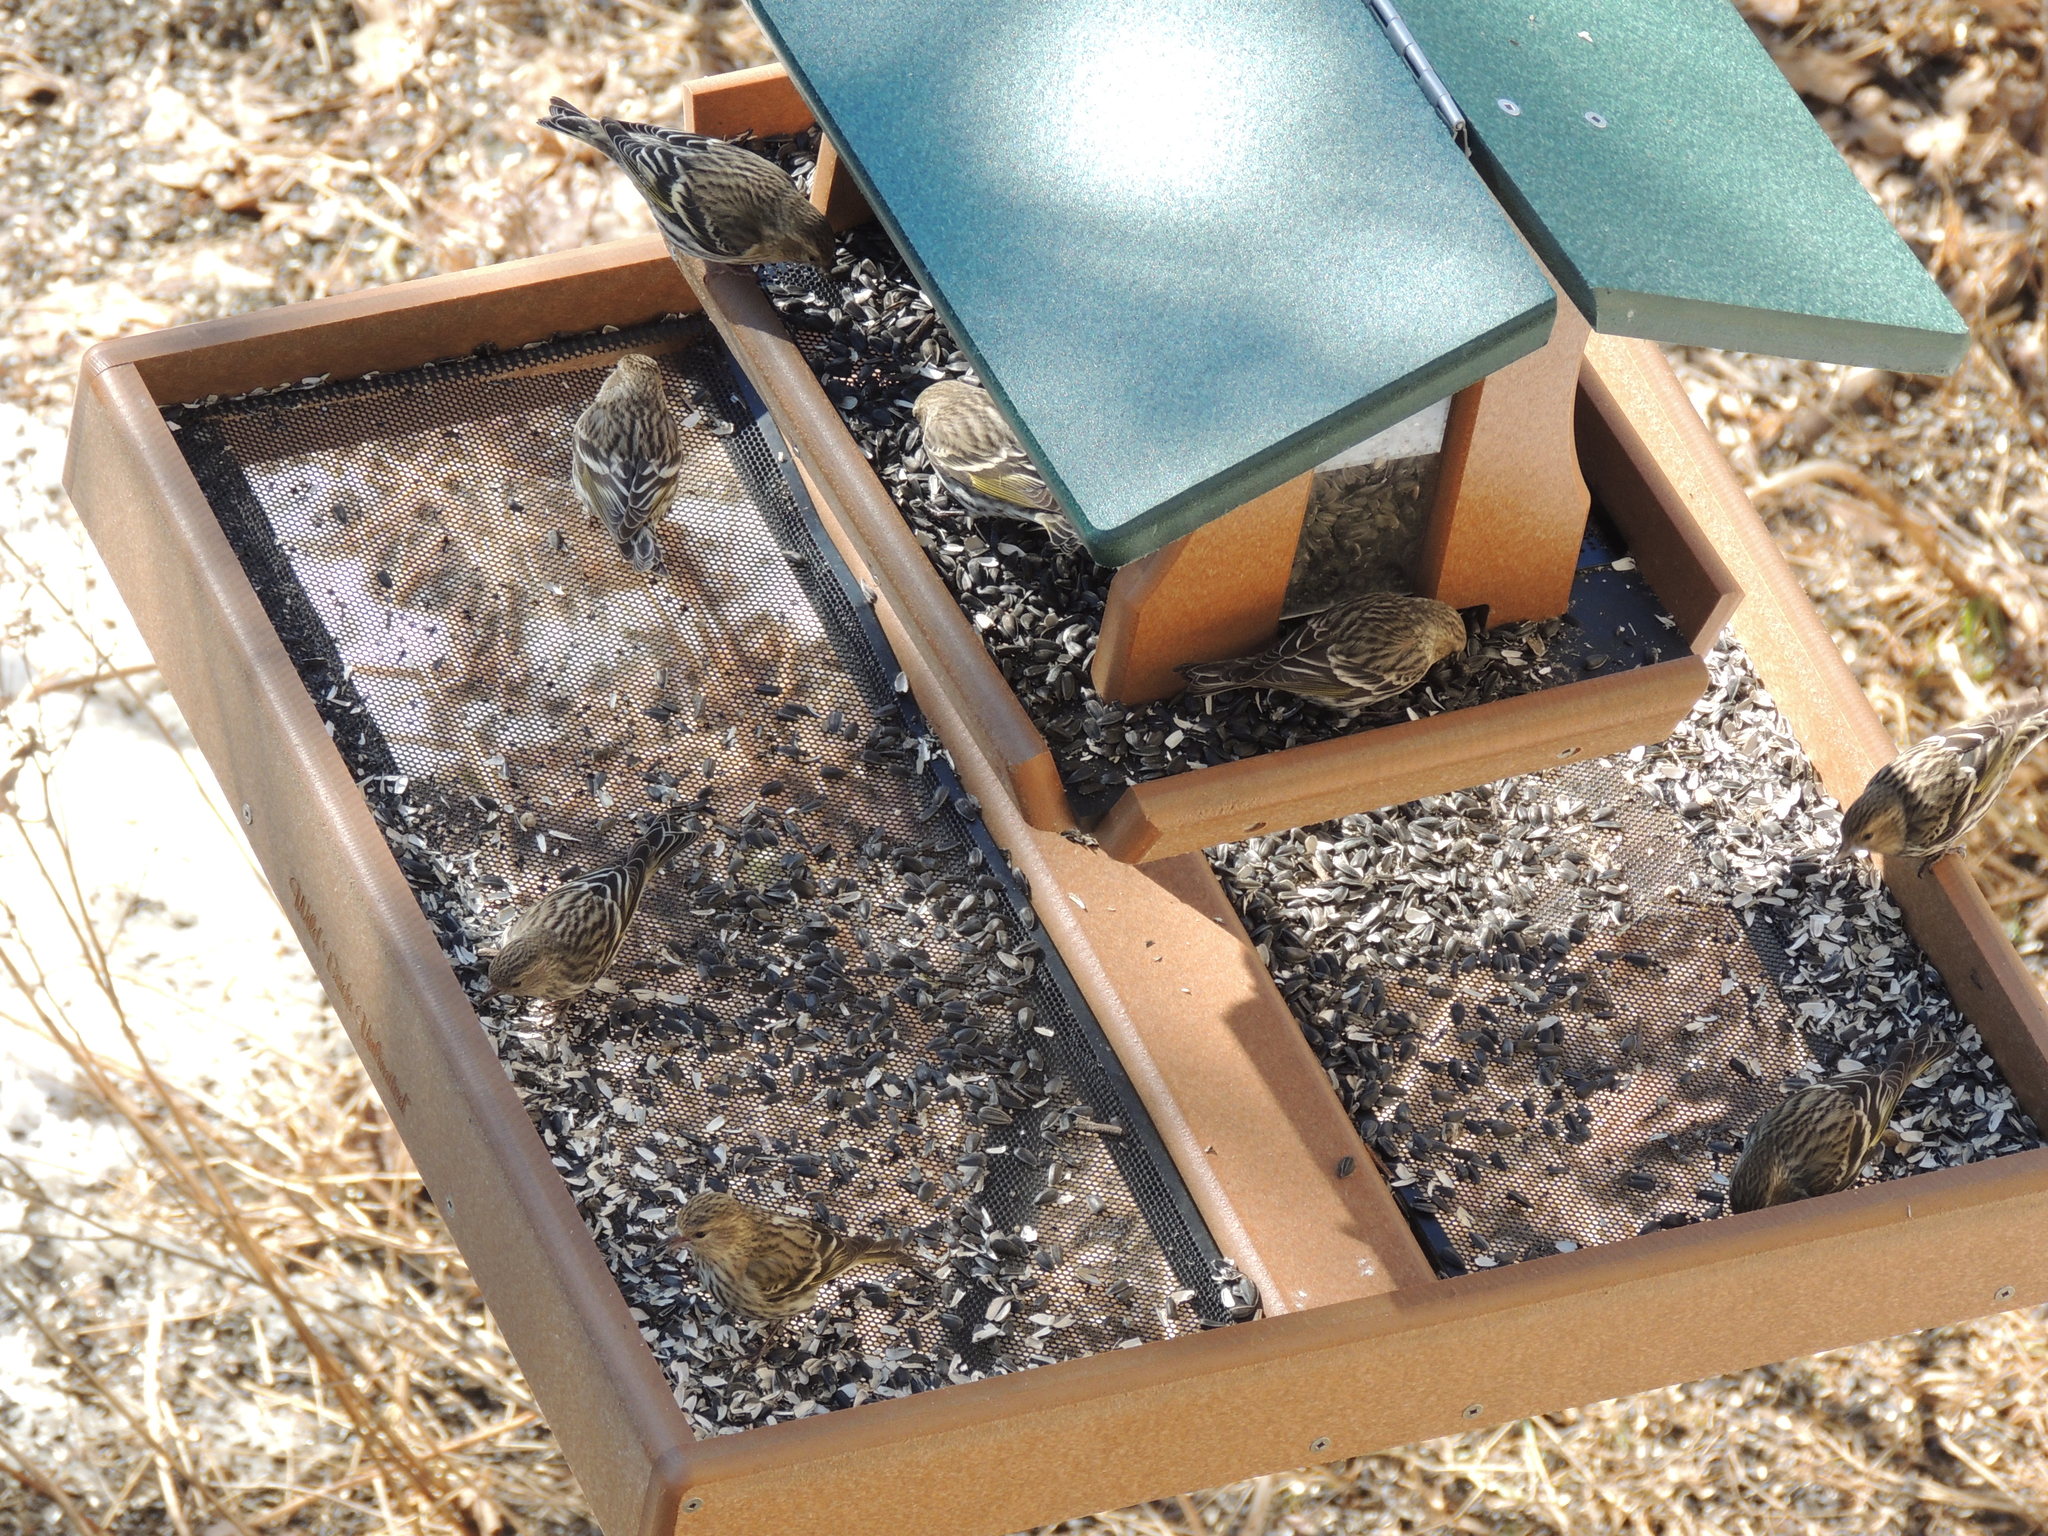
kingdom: Animalia
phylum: Chordata
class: Aves
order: Passeriformes
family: Fringillidae
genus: Spinus
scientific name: Spinus pinus
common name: Pine siskin
